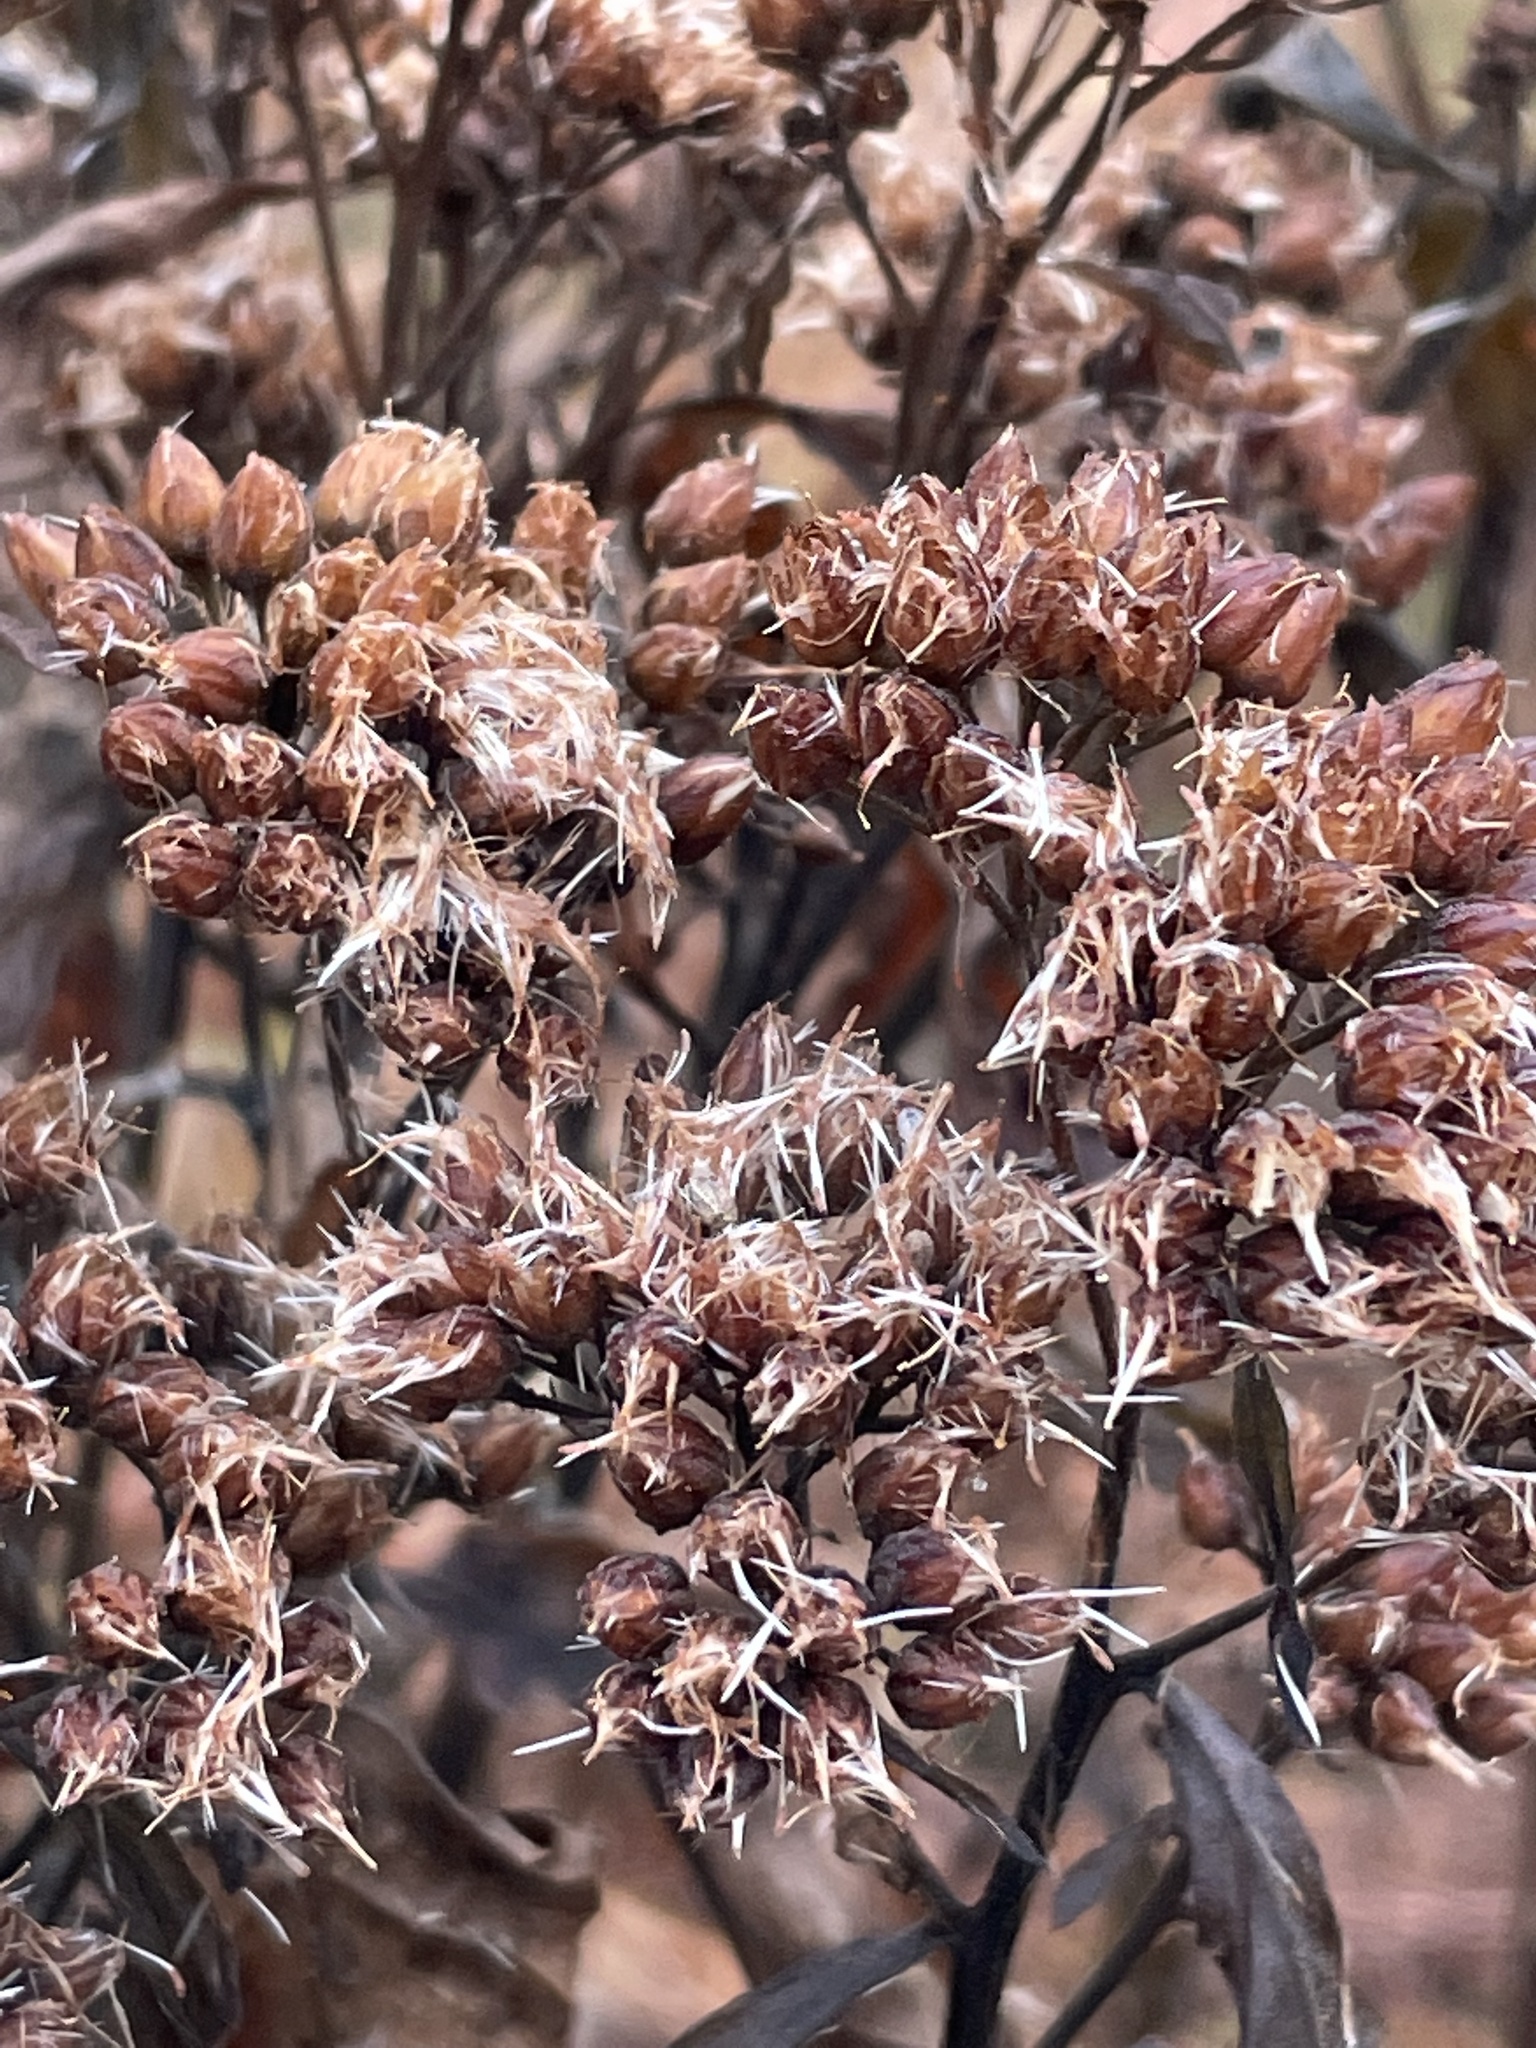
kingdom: Plantae
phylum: Tracheophyta
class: Magnoliopsida
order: Asterales
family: Asteraceae
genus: Pluchea
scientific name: Pluchea camphorata
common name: Camphor pluchea
